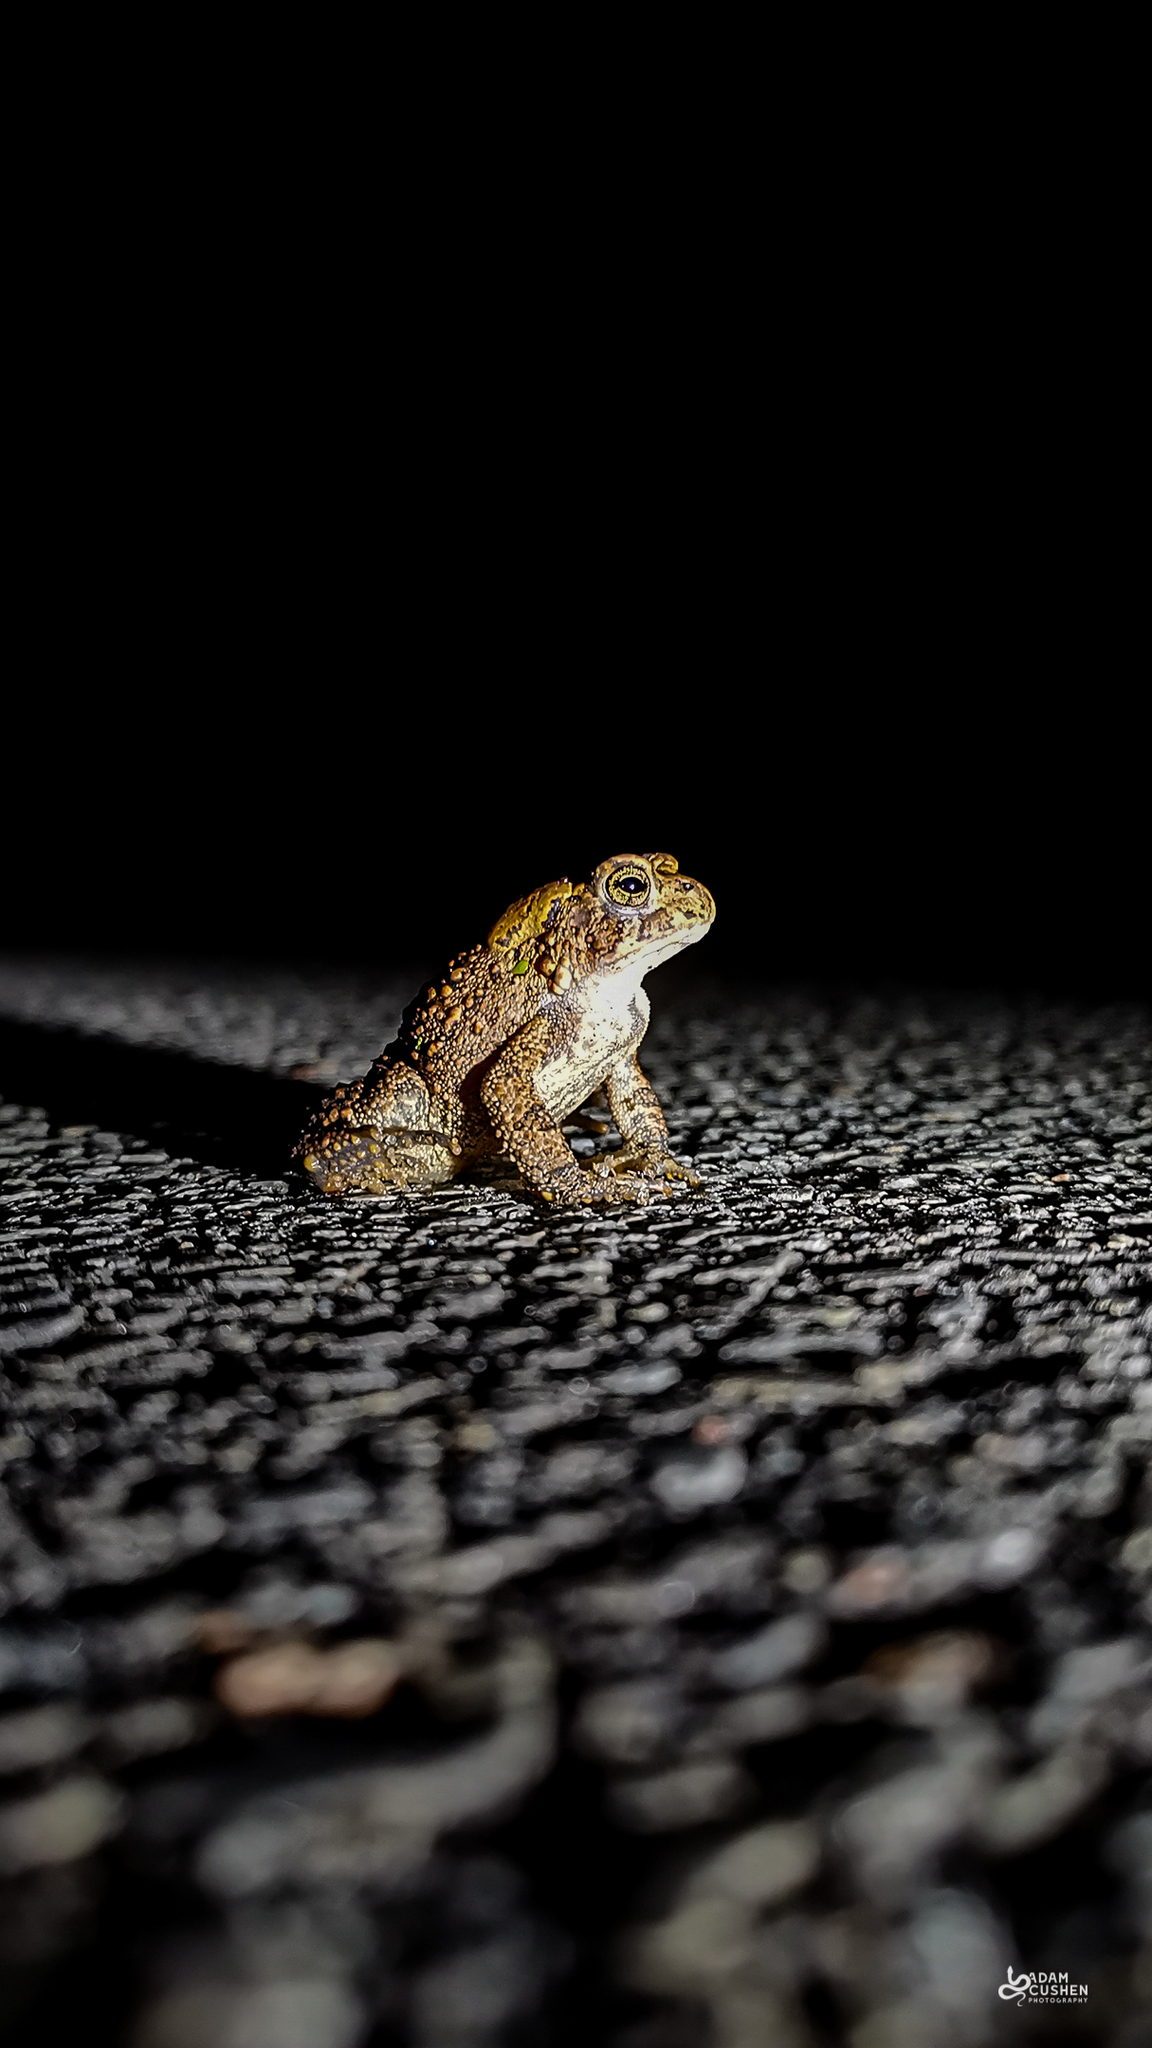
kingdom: Animalia
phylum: Chordata
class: Amphibia
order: Anura
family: Bufonidae
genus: Anaxyrus
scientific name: Anaxyrus americanus
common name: American toad
